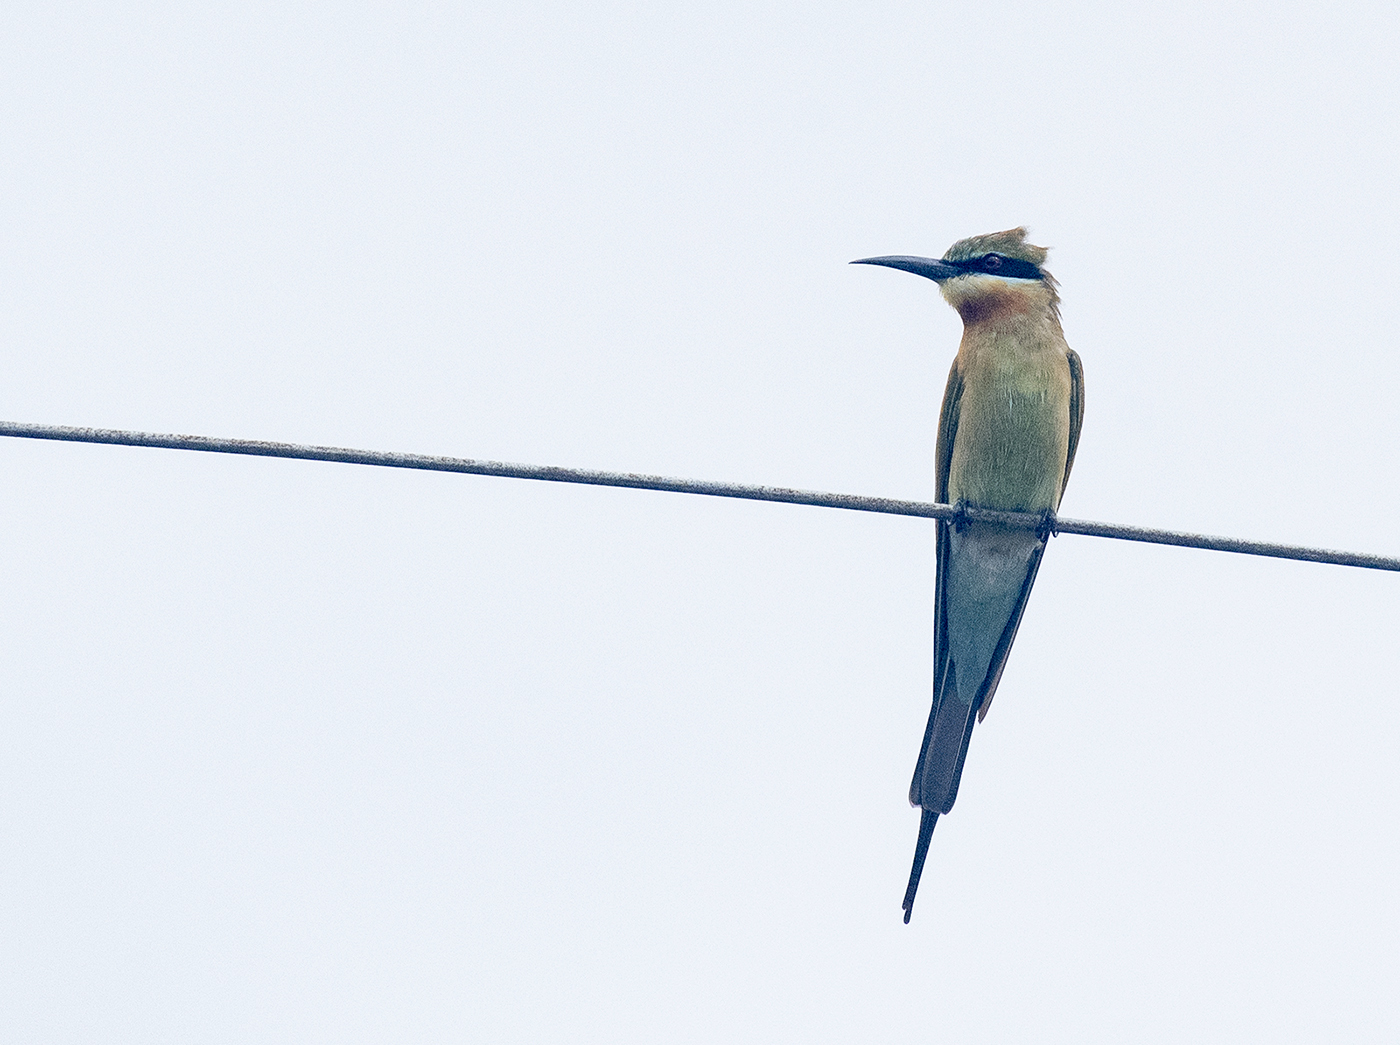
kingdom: Animalia
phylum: Chordata
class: Aves
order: Coraciiformes
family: Meropidae
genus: Merops
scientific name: Merops philippinus
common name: Blue-tailed bee-eater
